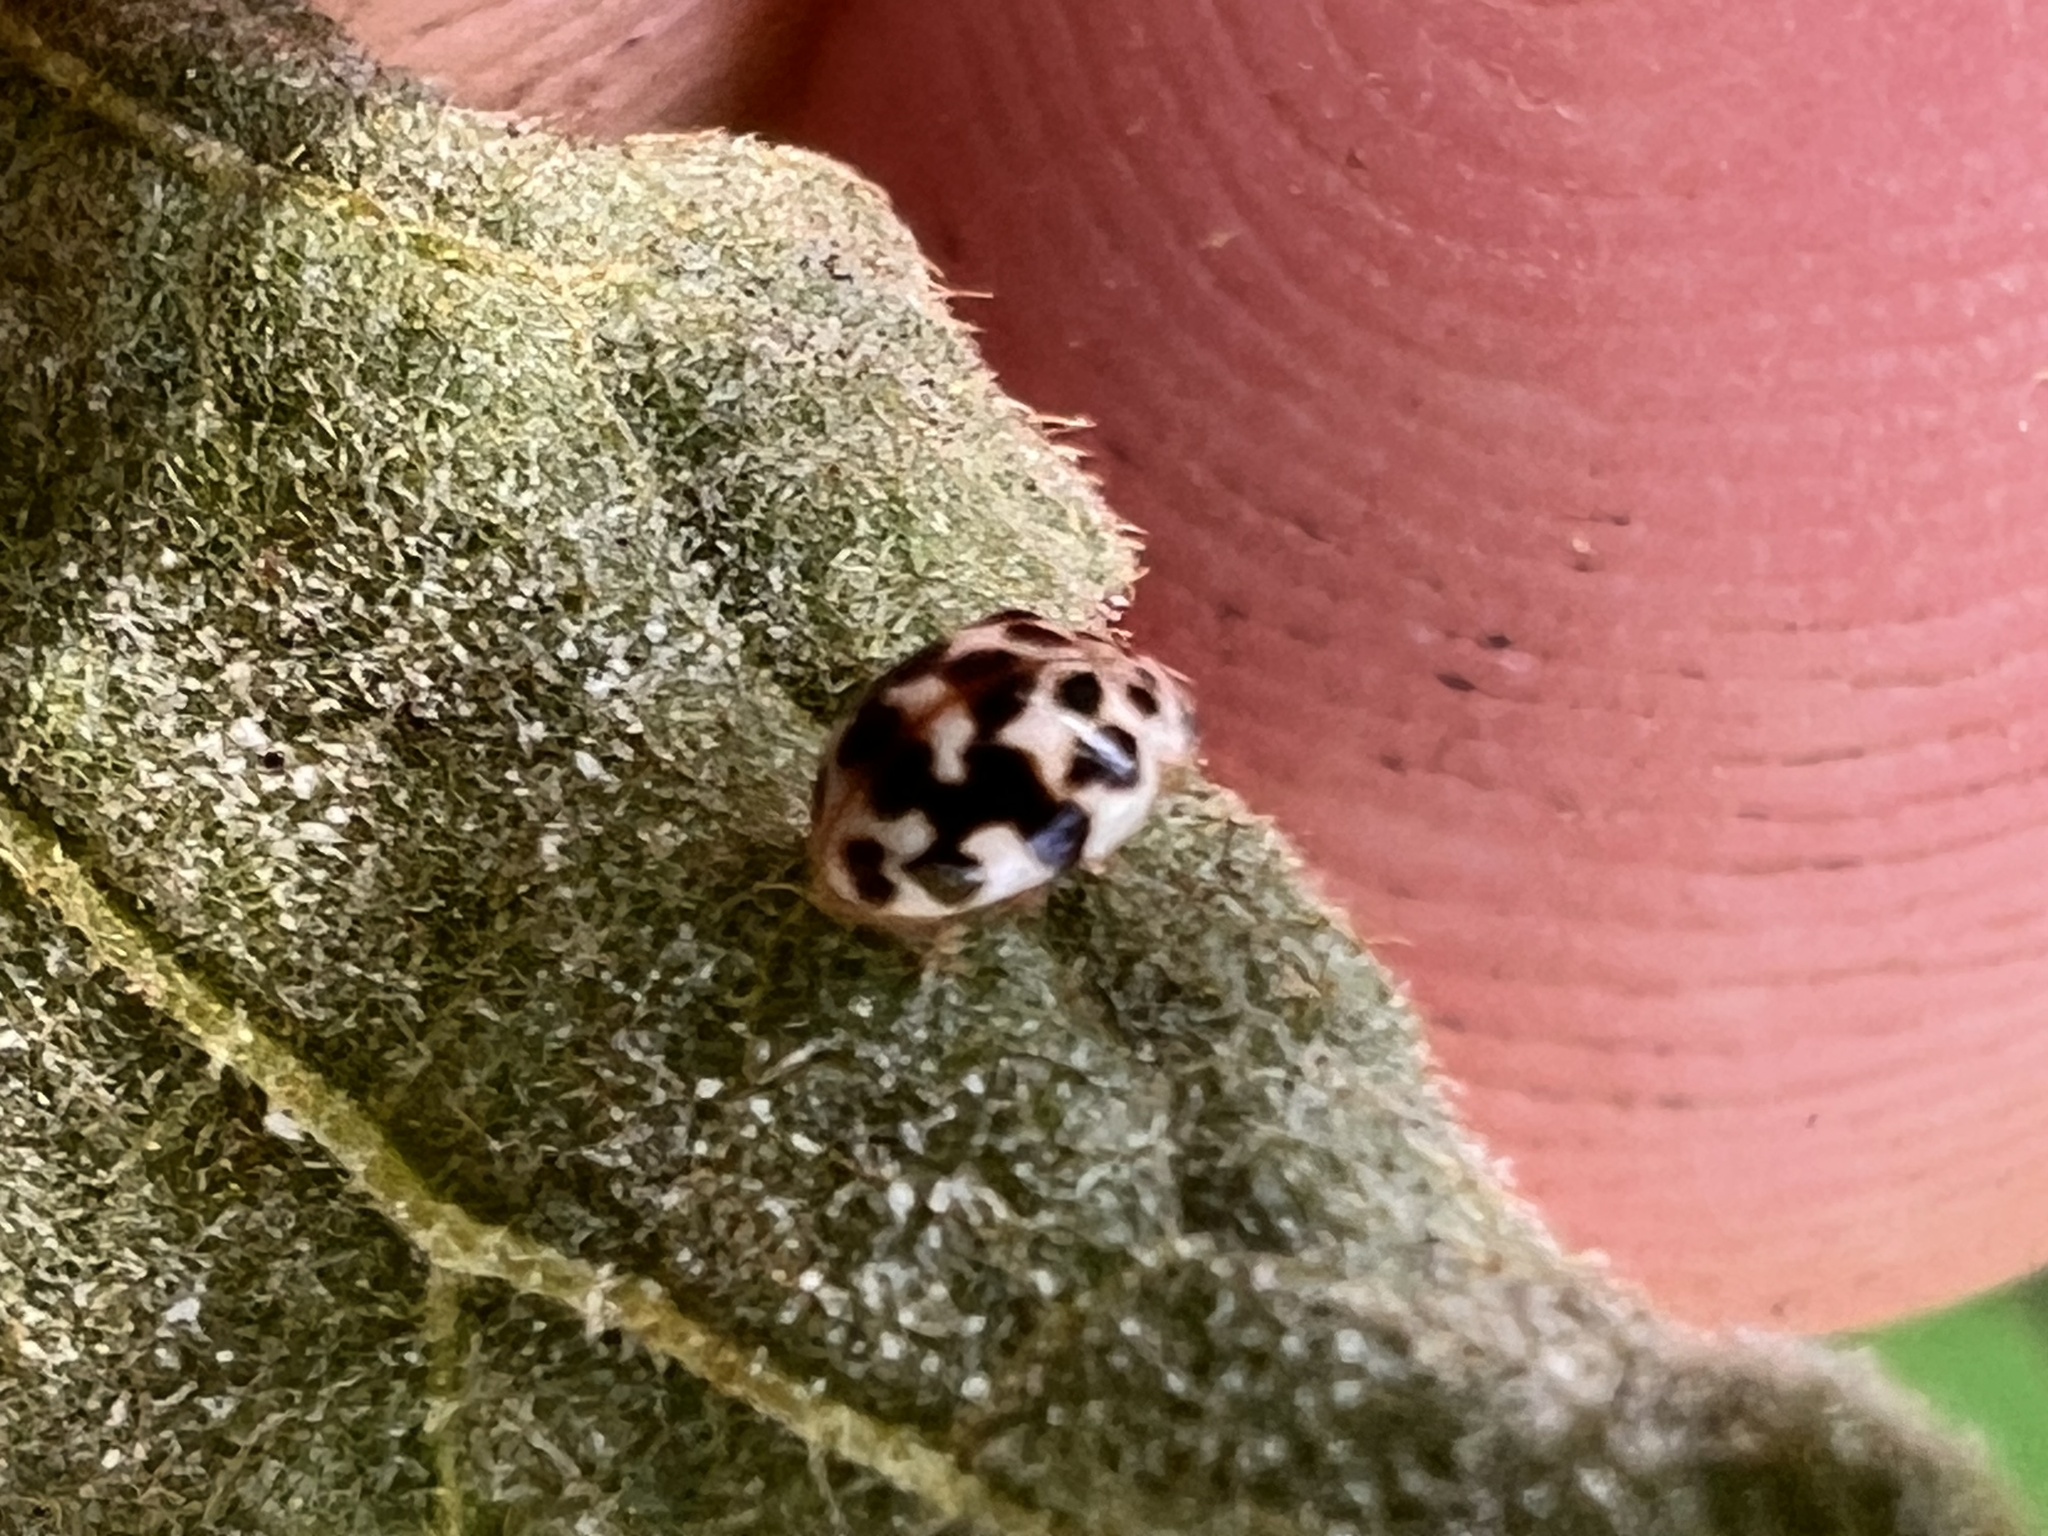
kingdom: Animalia
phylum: Arthropoda
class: Insecta
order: Coleoptera
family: Coccinellidae
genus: Psyllobora
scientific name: Psyllobora vigintimaculata
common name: Ladybird beetle
